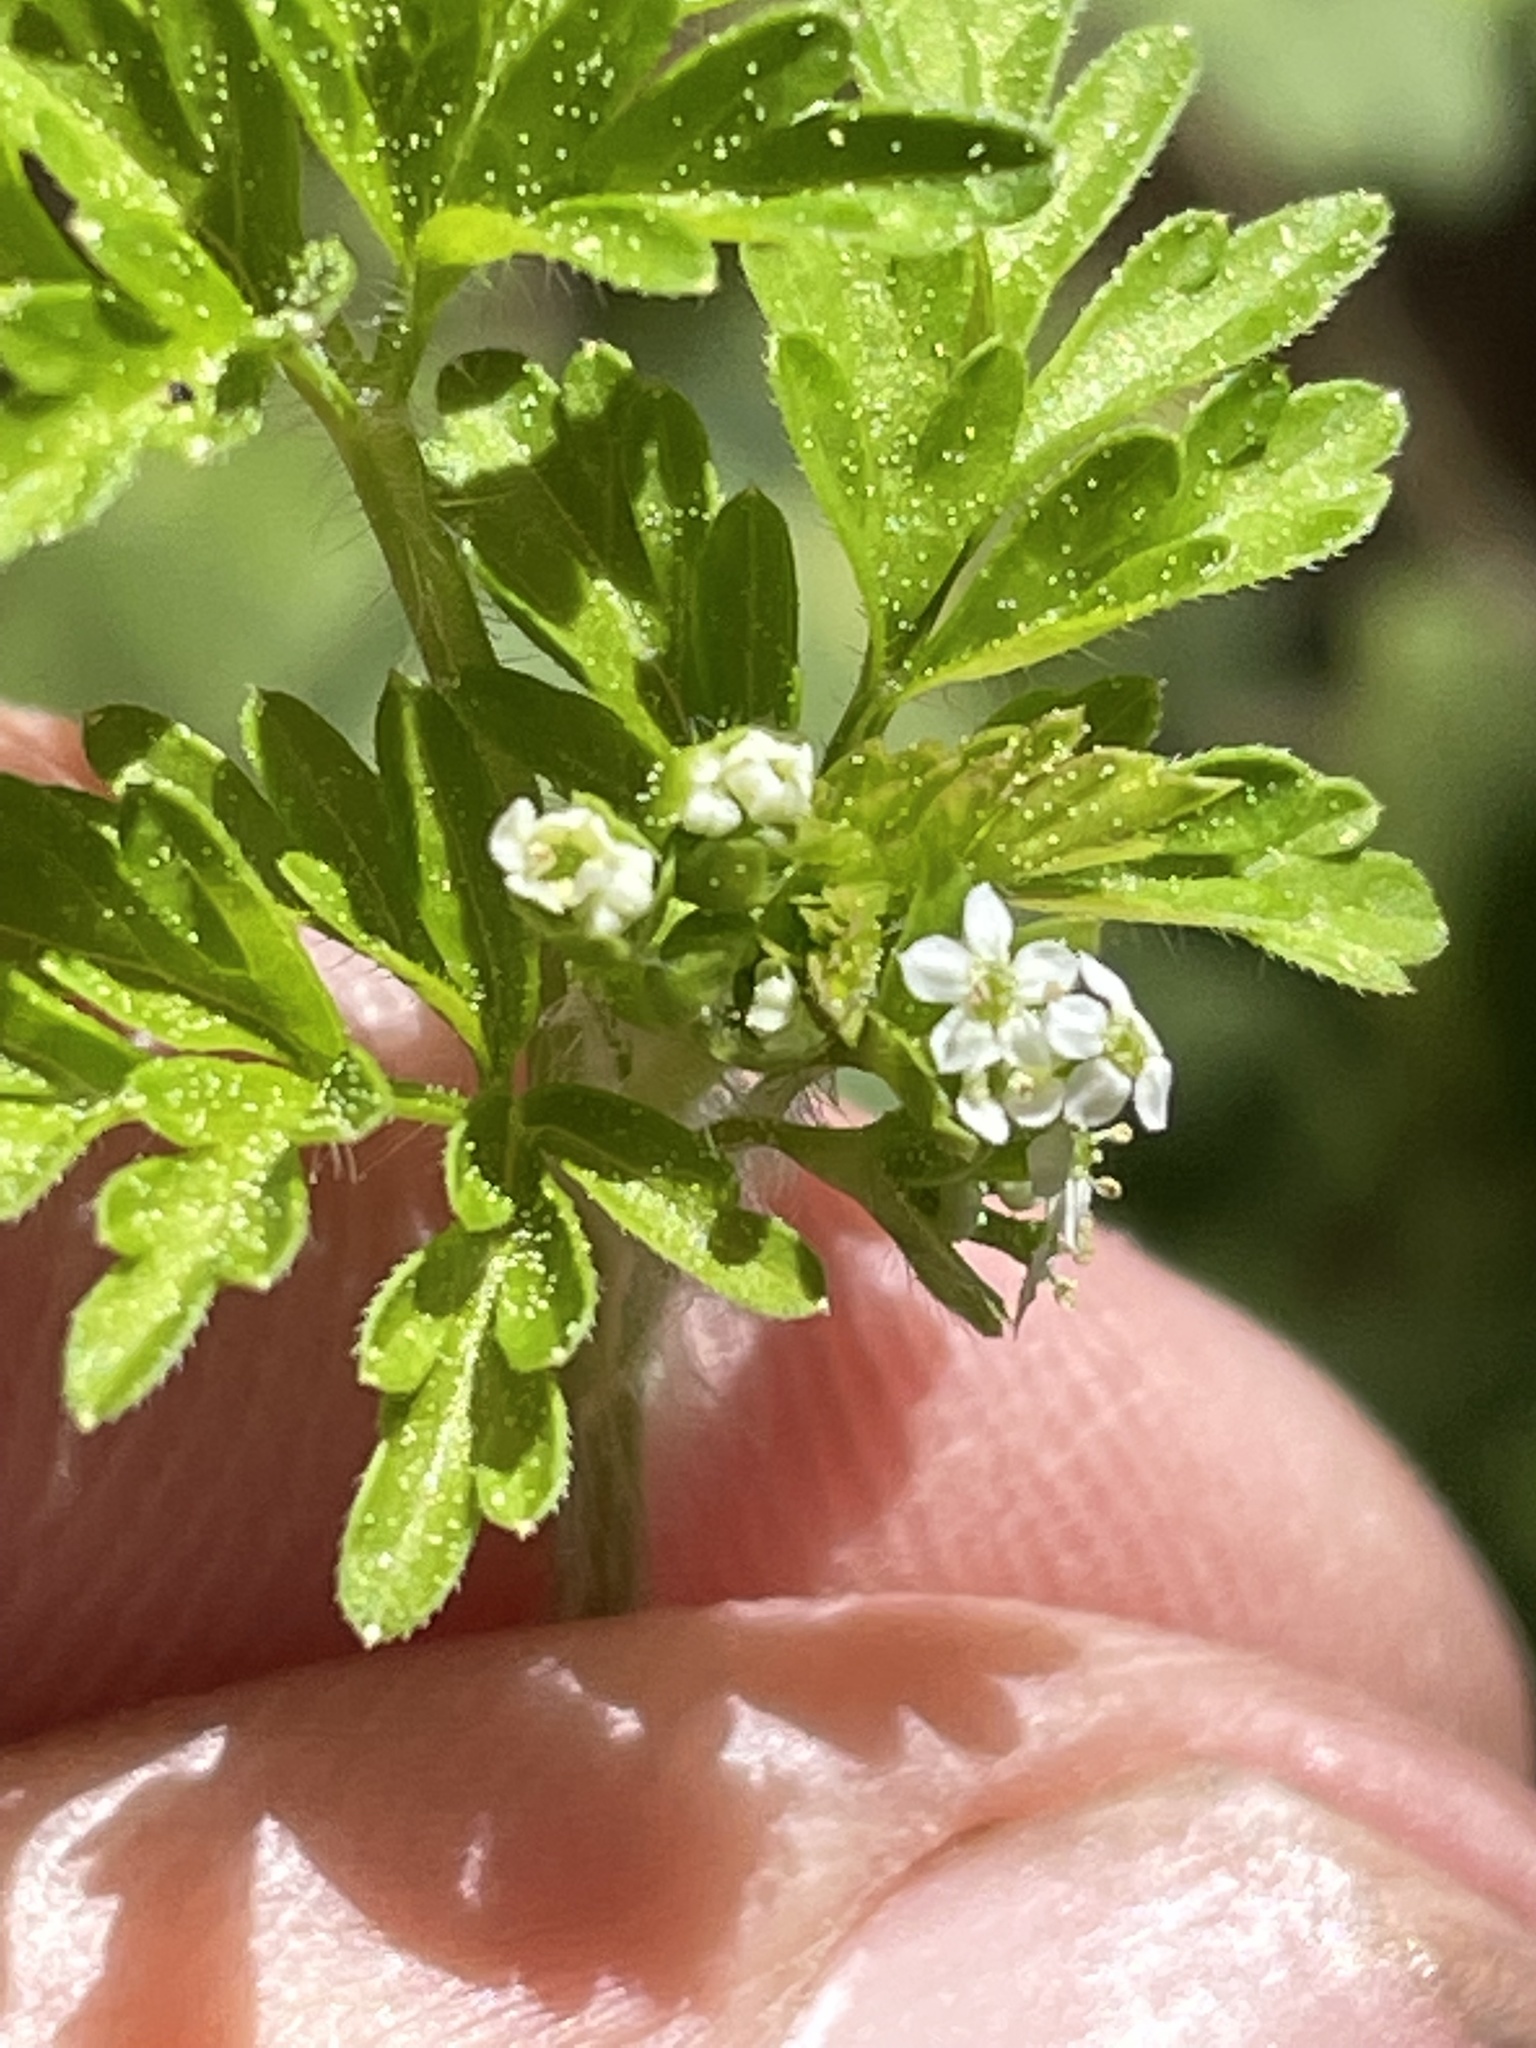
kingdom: Plantae
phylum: Tracheophyta
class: Magnoliopsida
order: Apiales
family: Apiaceae
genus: Chaerophyllum
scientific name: Chaerophyllum tainturieri
